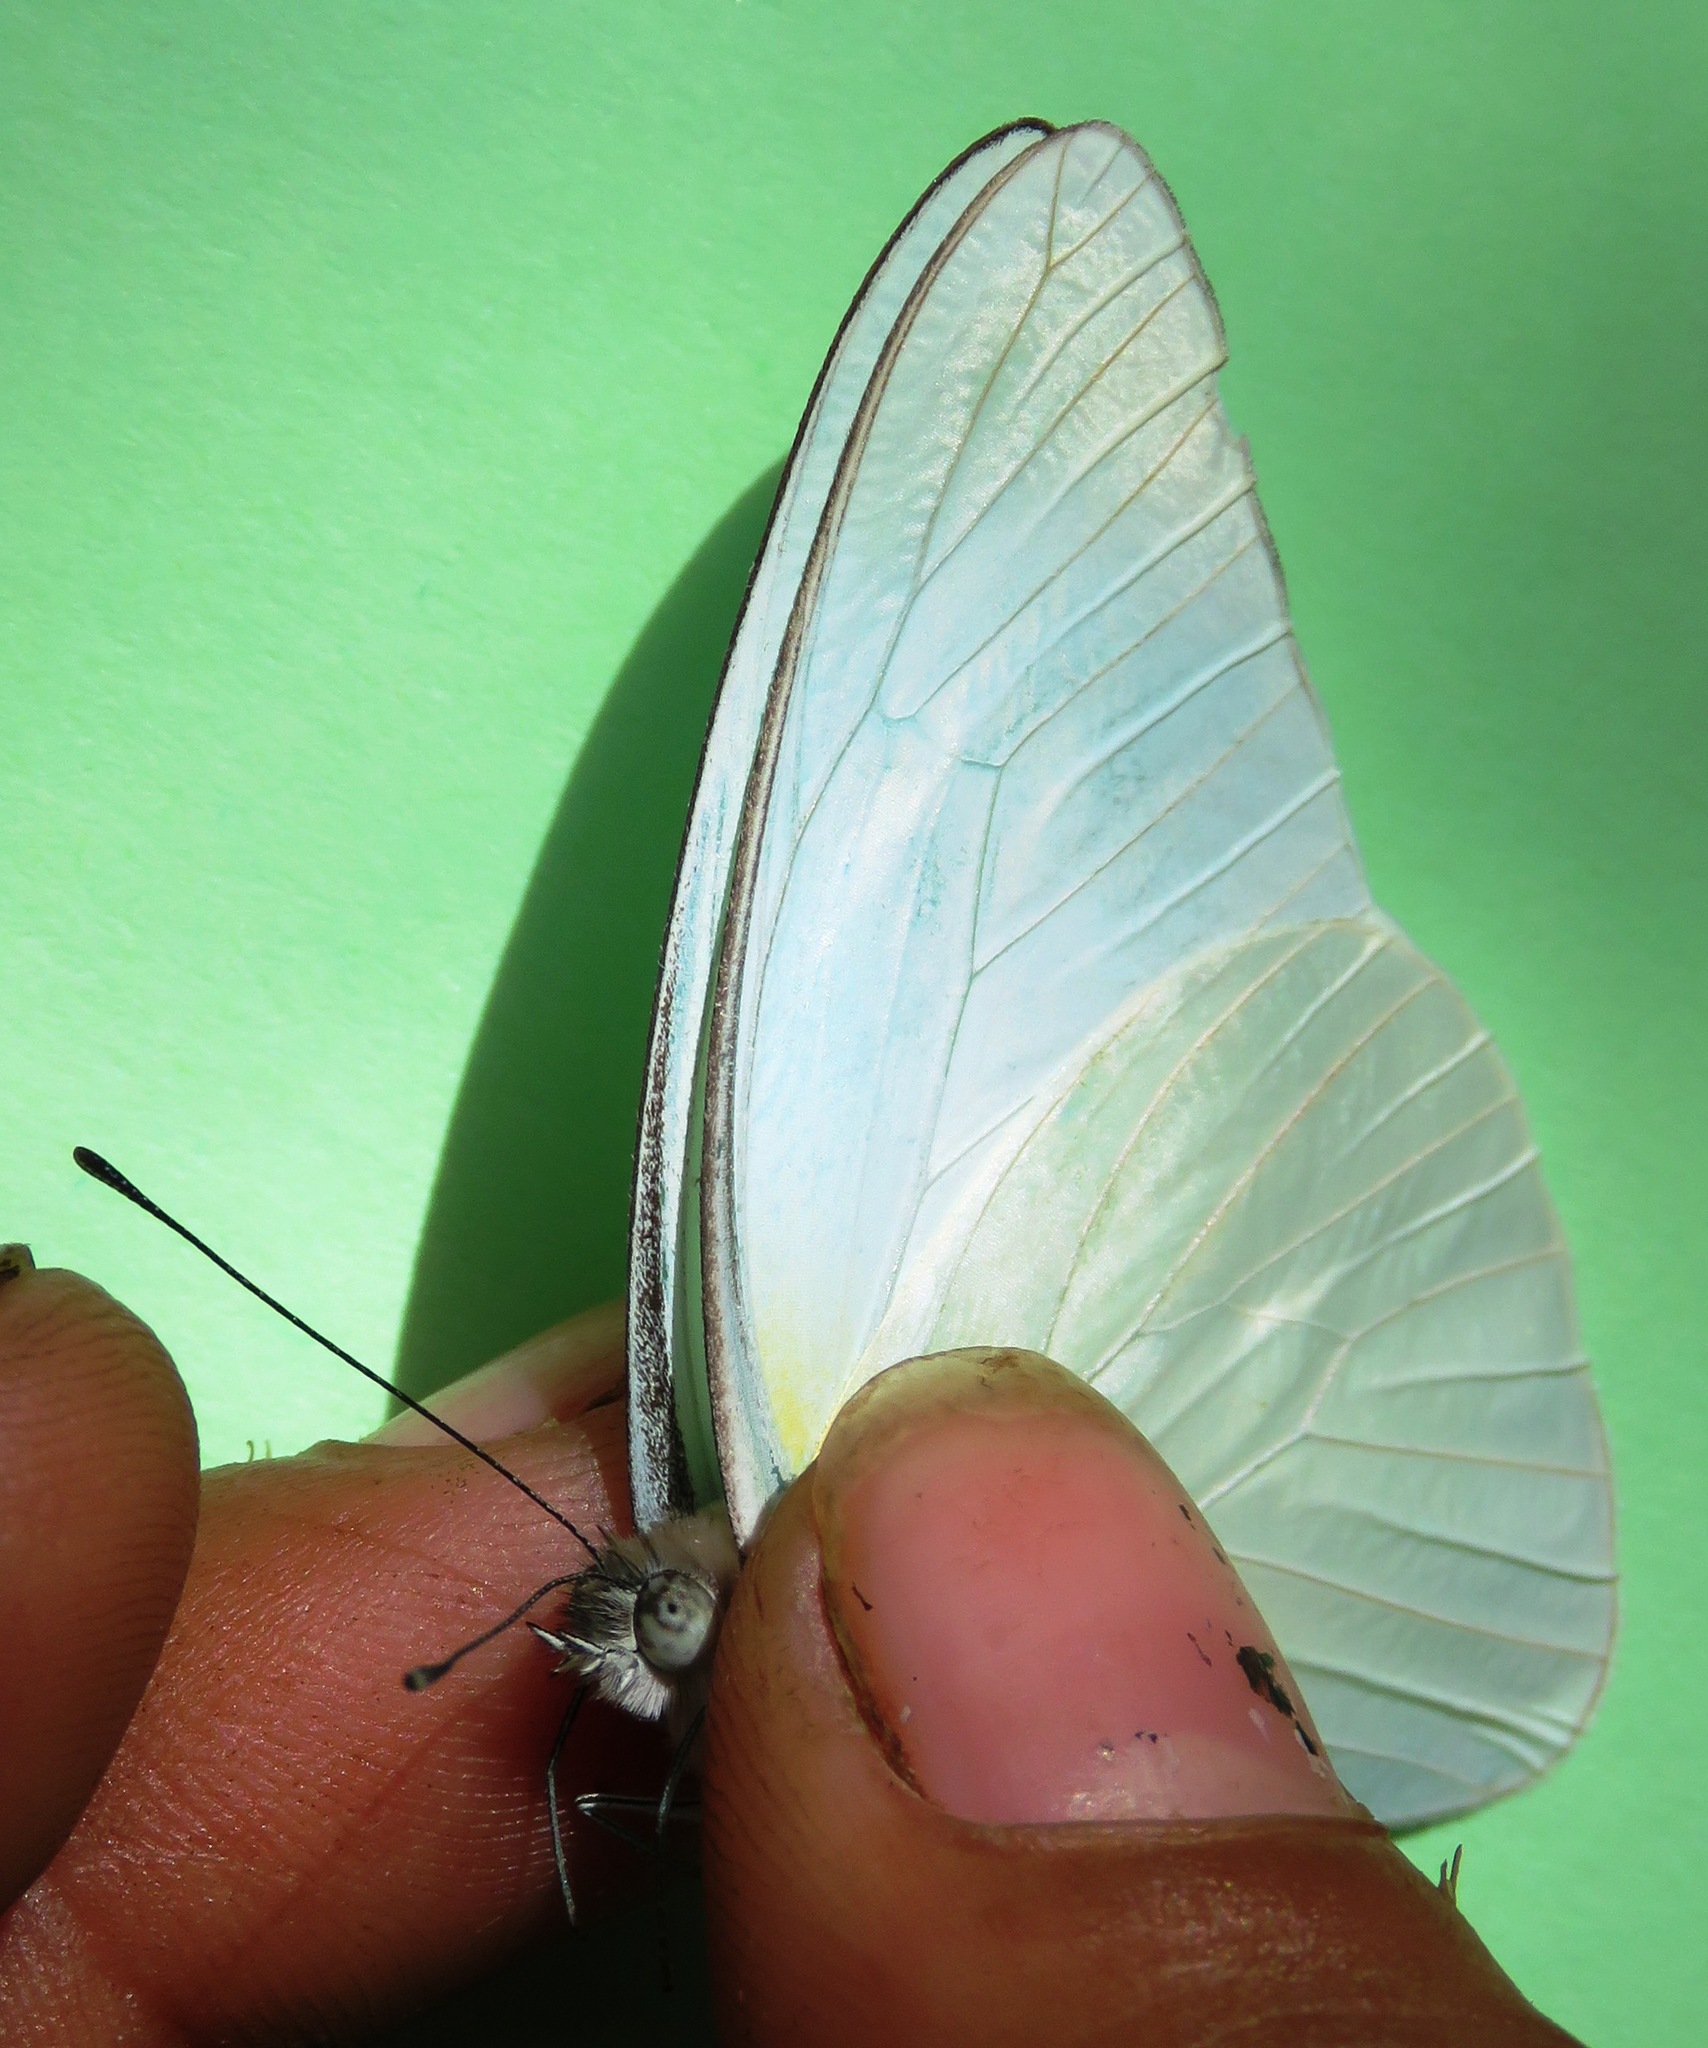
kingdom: Animalia
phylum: Arthropoda
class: Insecta
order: Lepidoptera
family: Pieridae
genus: Glutophrissa
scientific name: Glutophrissa drusilla
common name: Florida white
